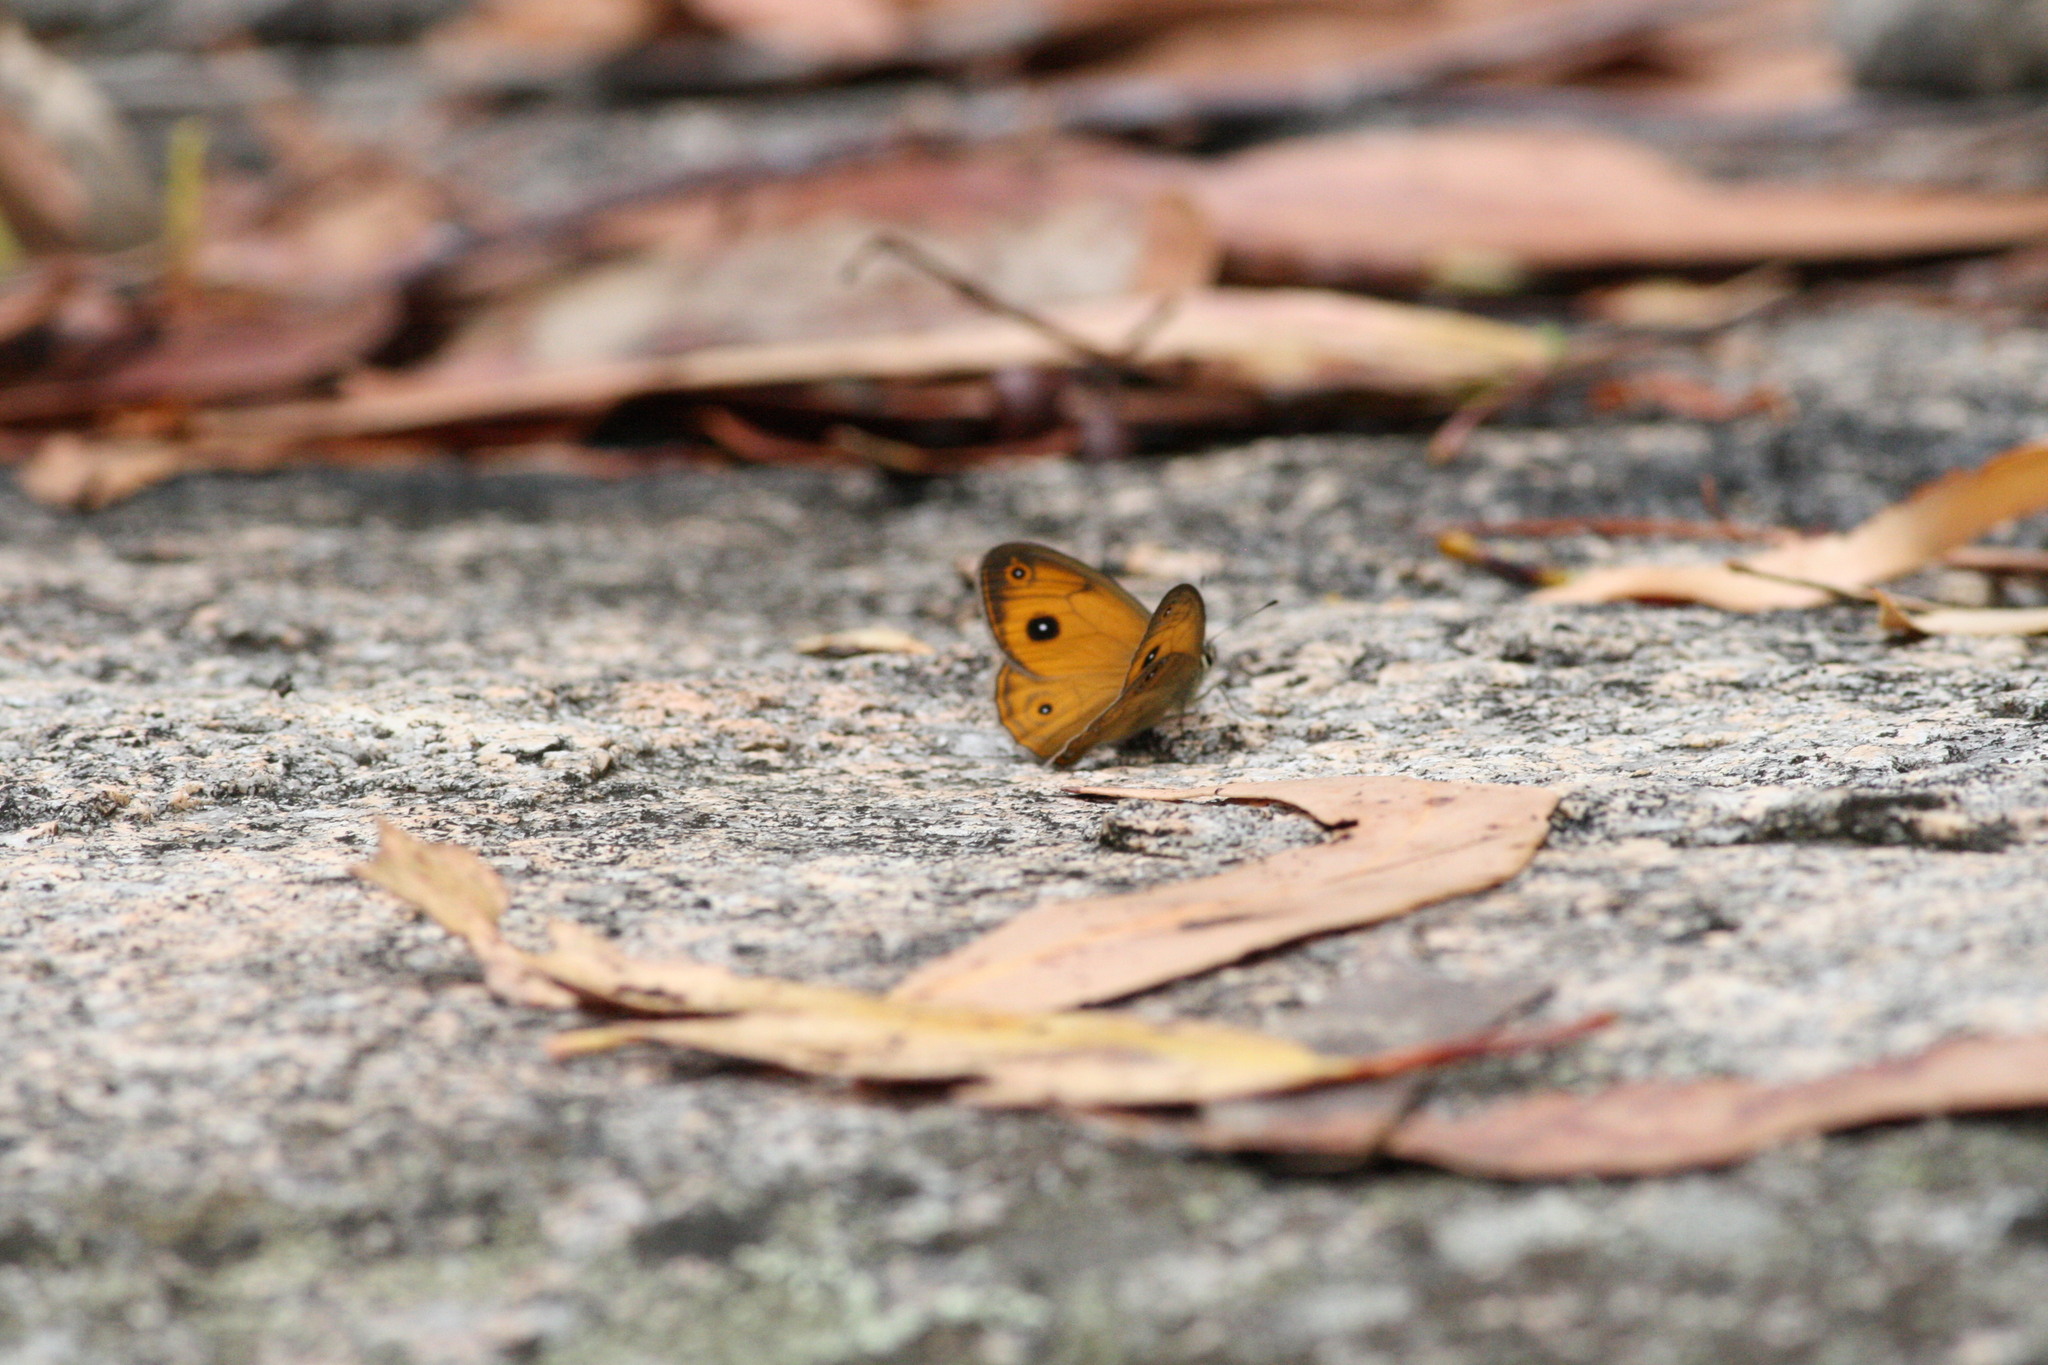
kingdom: Animalia
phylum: Arthropoda
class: Insecta
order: Lepidoptera
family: Nymphalidae
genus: Hypocysta
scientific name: Hypocysta euphemia
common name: Rock ringlet
